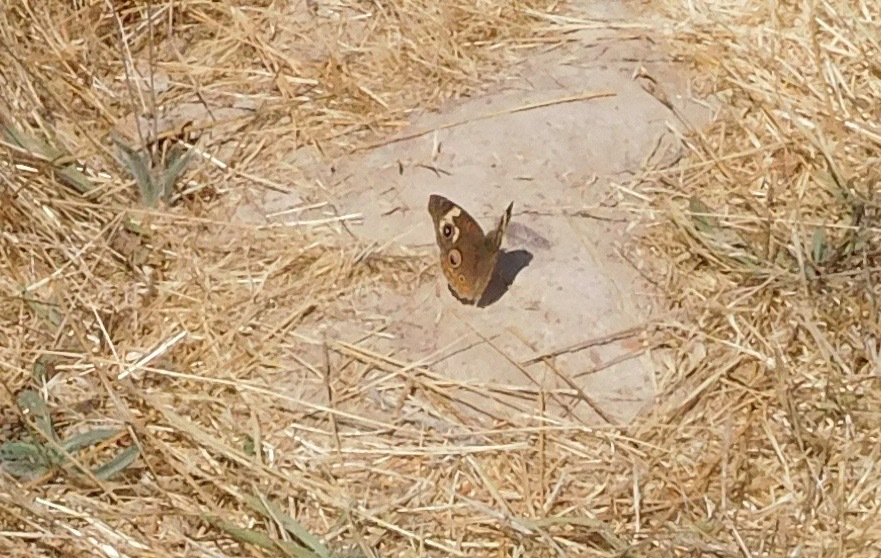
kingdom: Animalia
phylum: Arthropoda
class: Insecta
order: Lepidoptera
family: Nymphalidae
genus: Junonia
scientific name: Junonia grisea
